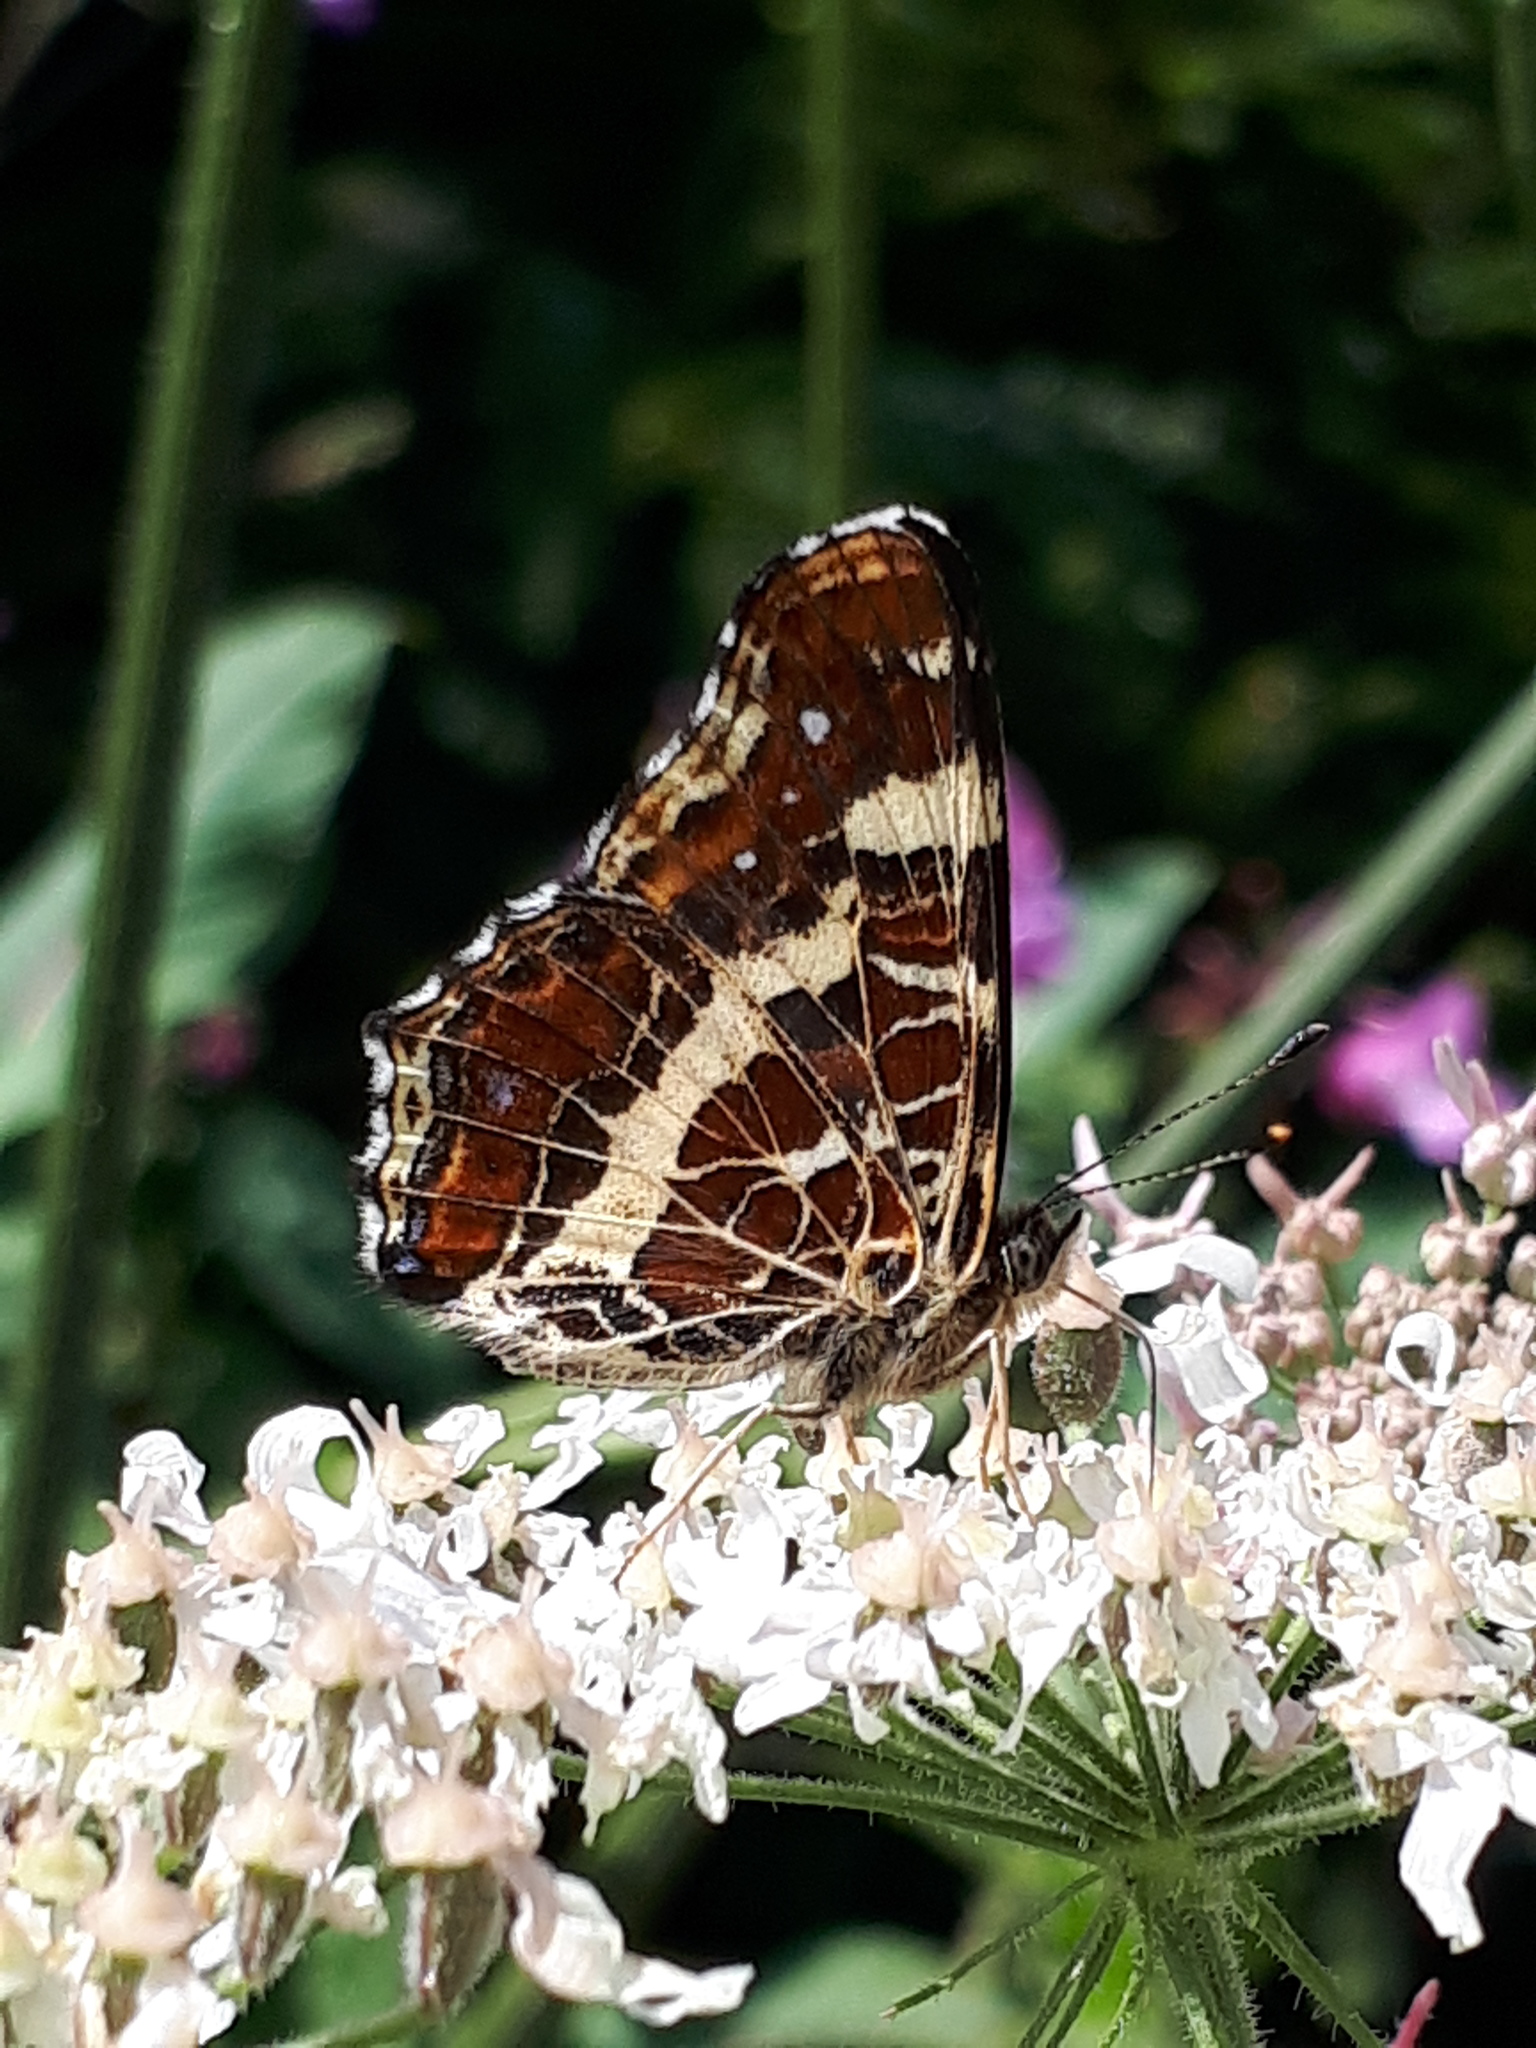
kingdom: Animalia
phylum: Arthropoda
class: Insecta
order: Lepidoptera
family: Nymphalidae
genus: Araschnia
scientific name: Araschnia levana
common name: Map butterfly
